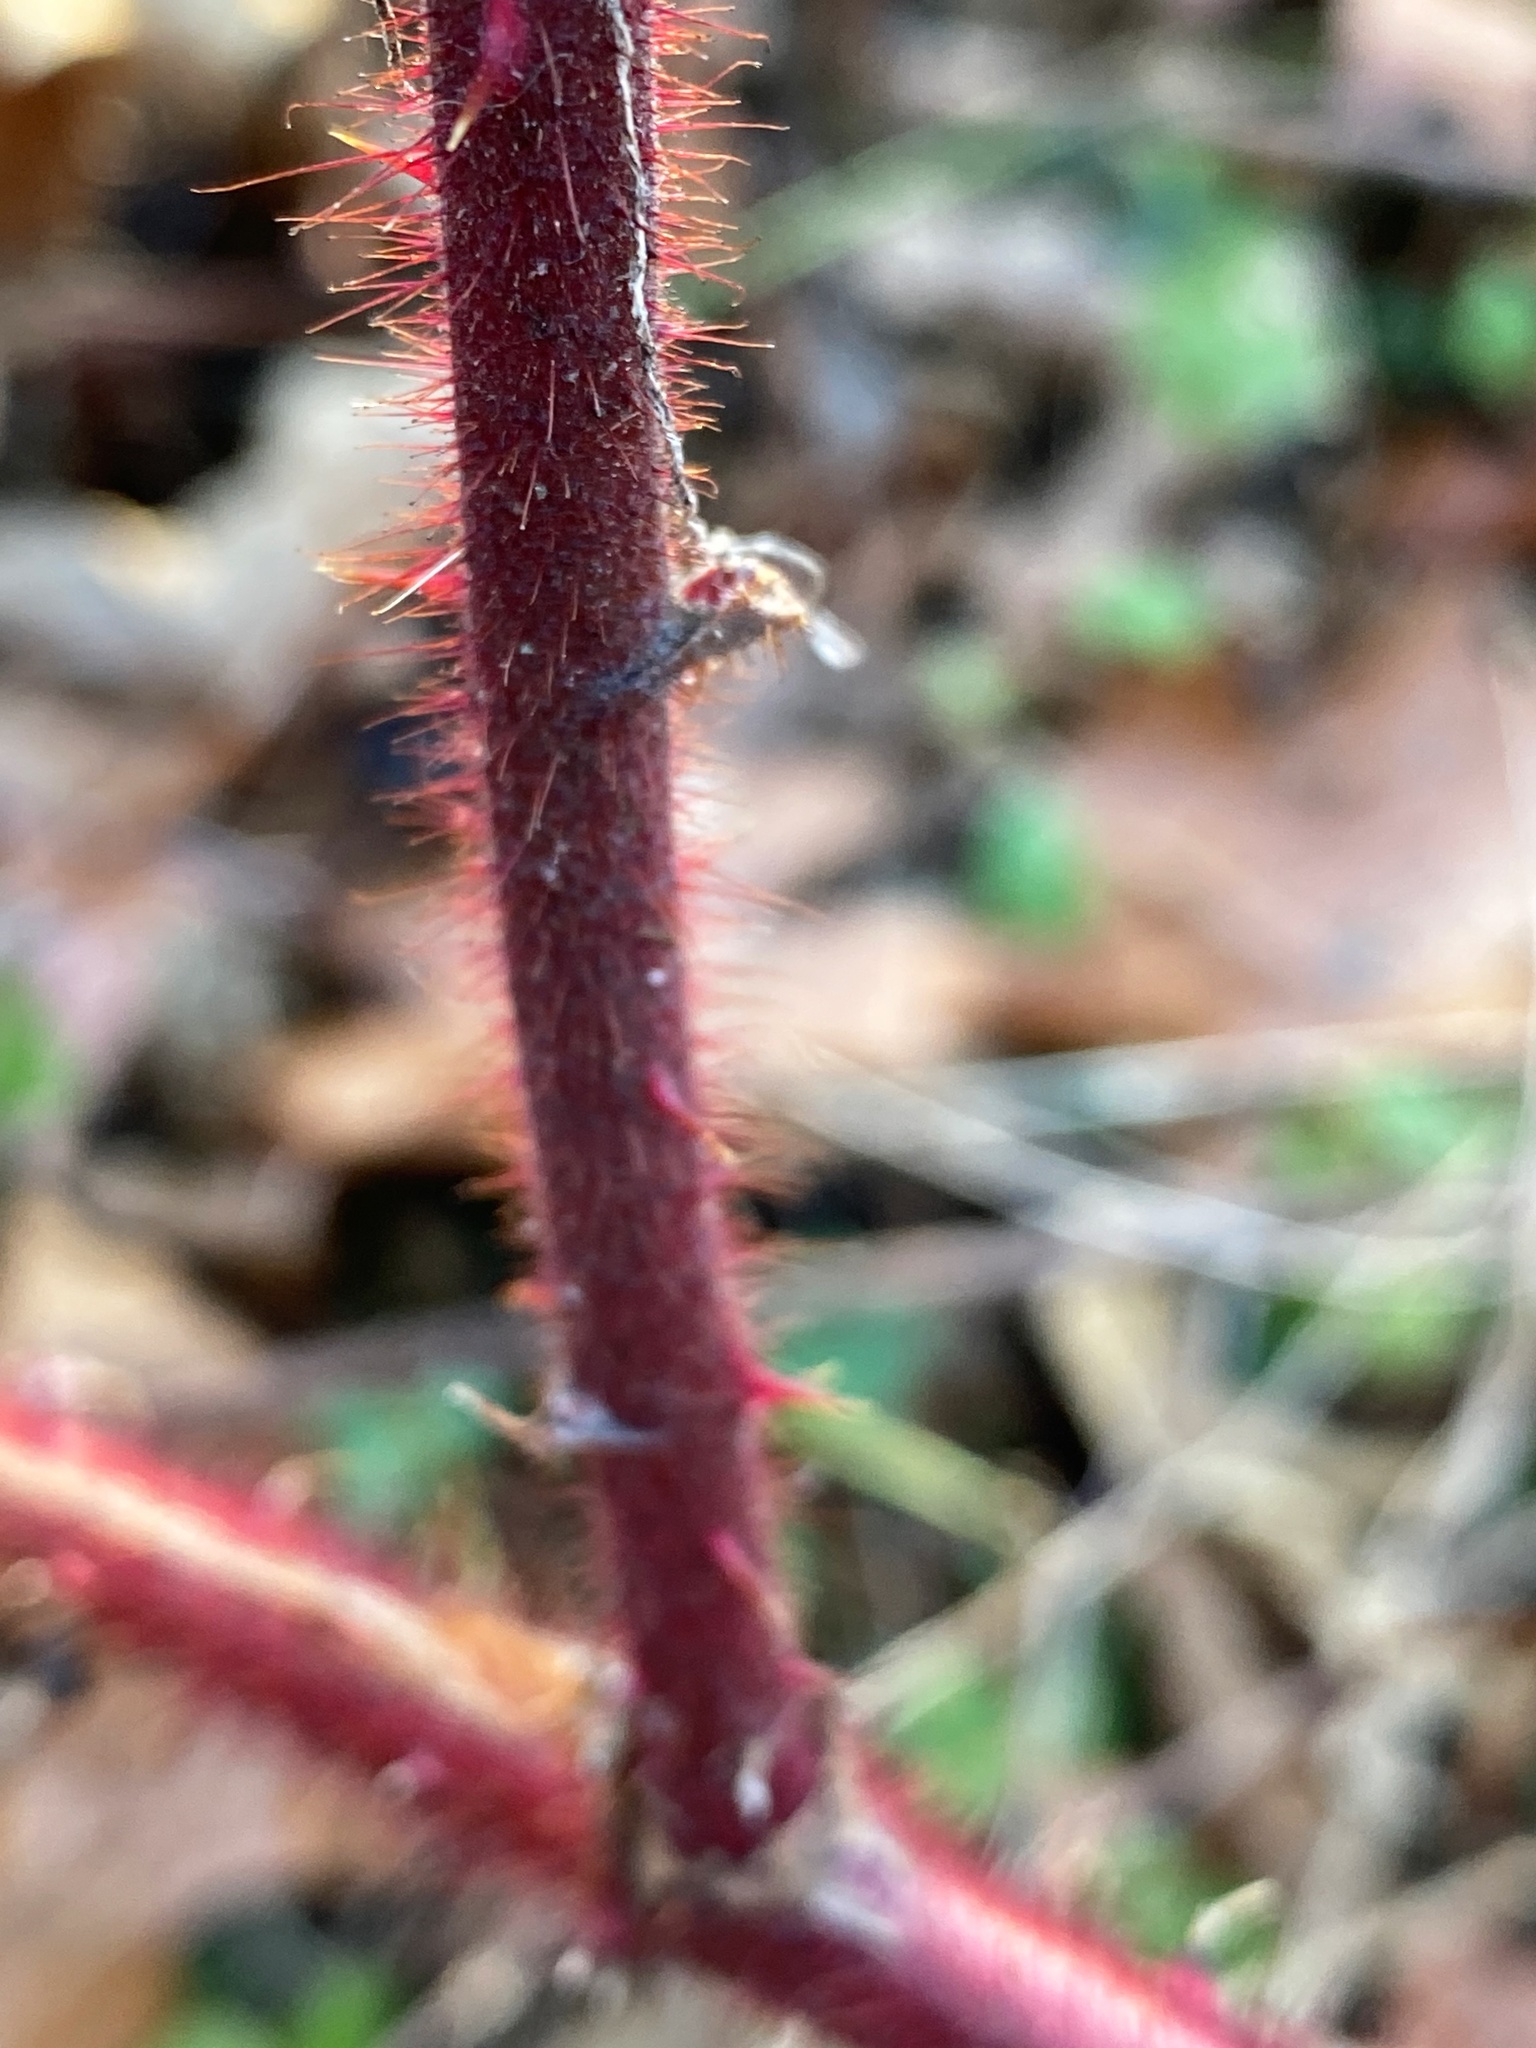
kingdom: Plantae
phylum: Tracheophyta
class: Magnoliopsida
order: Rosales
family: Rosaceae
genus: Rubus
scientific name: Rubus phoenicolasius
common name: Japanese wineberry
